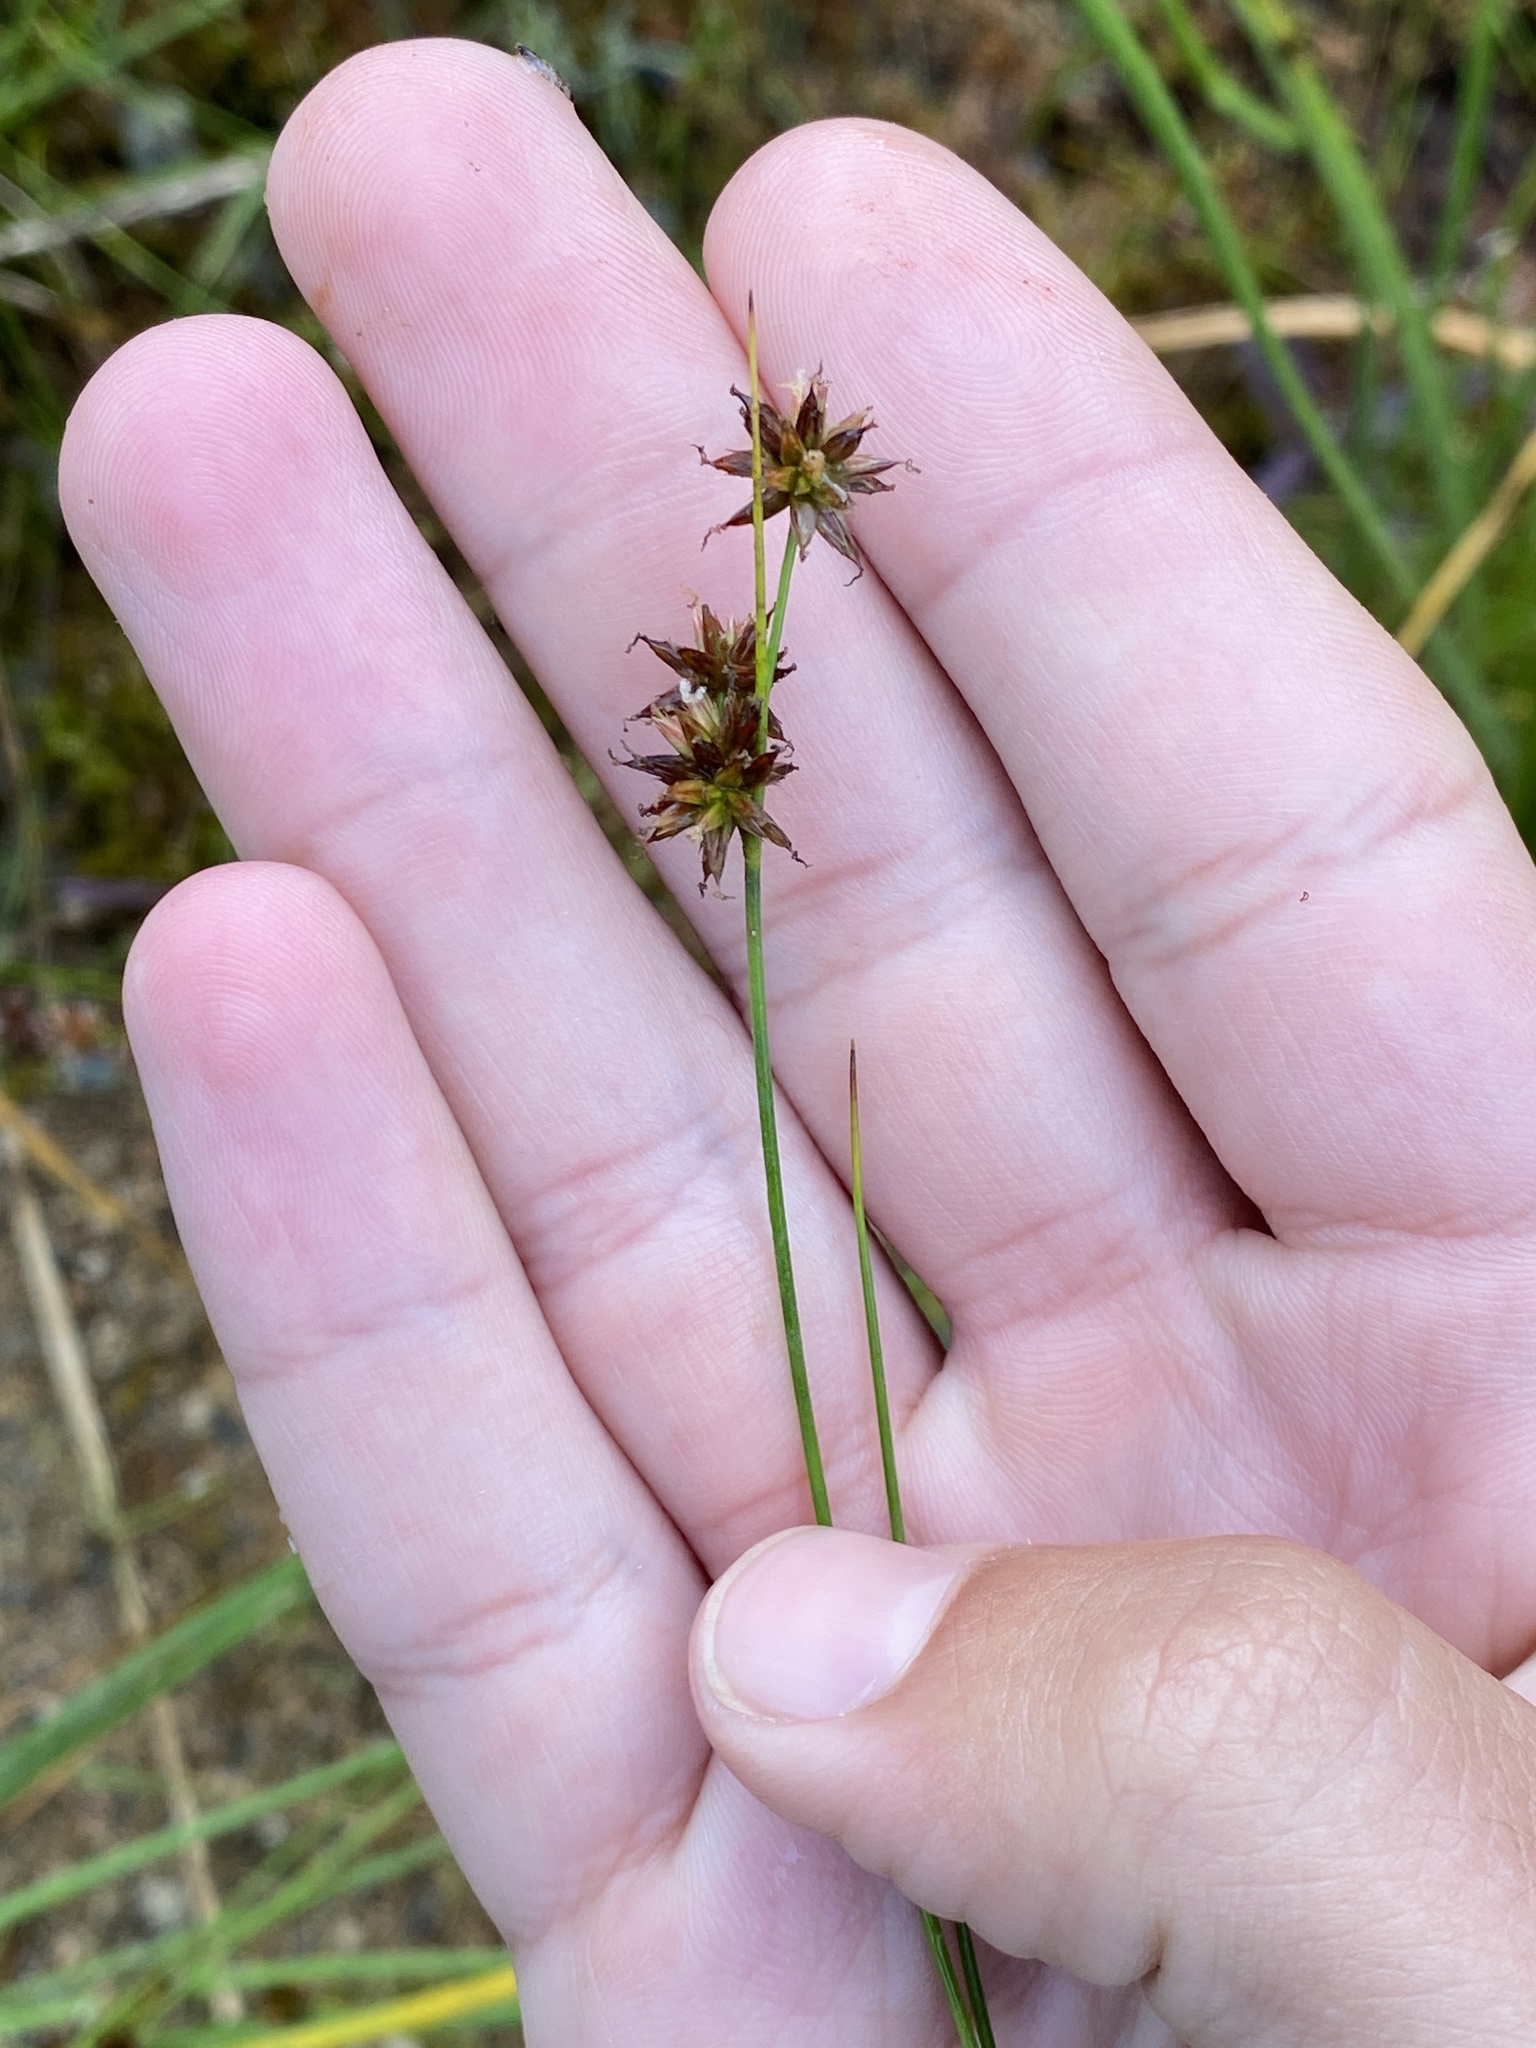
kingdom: Plantae
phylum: Tracheophyta
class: Liliopsida
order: Poales
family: Juncaceae
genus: Juncus
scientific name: Juncus nodosus
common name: Knotted rush
